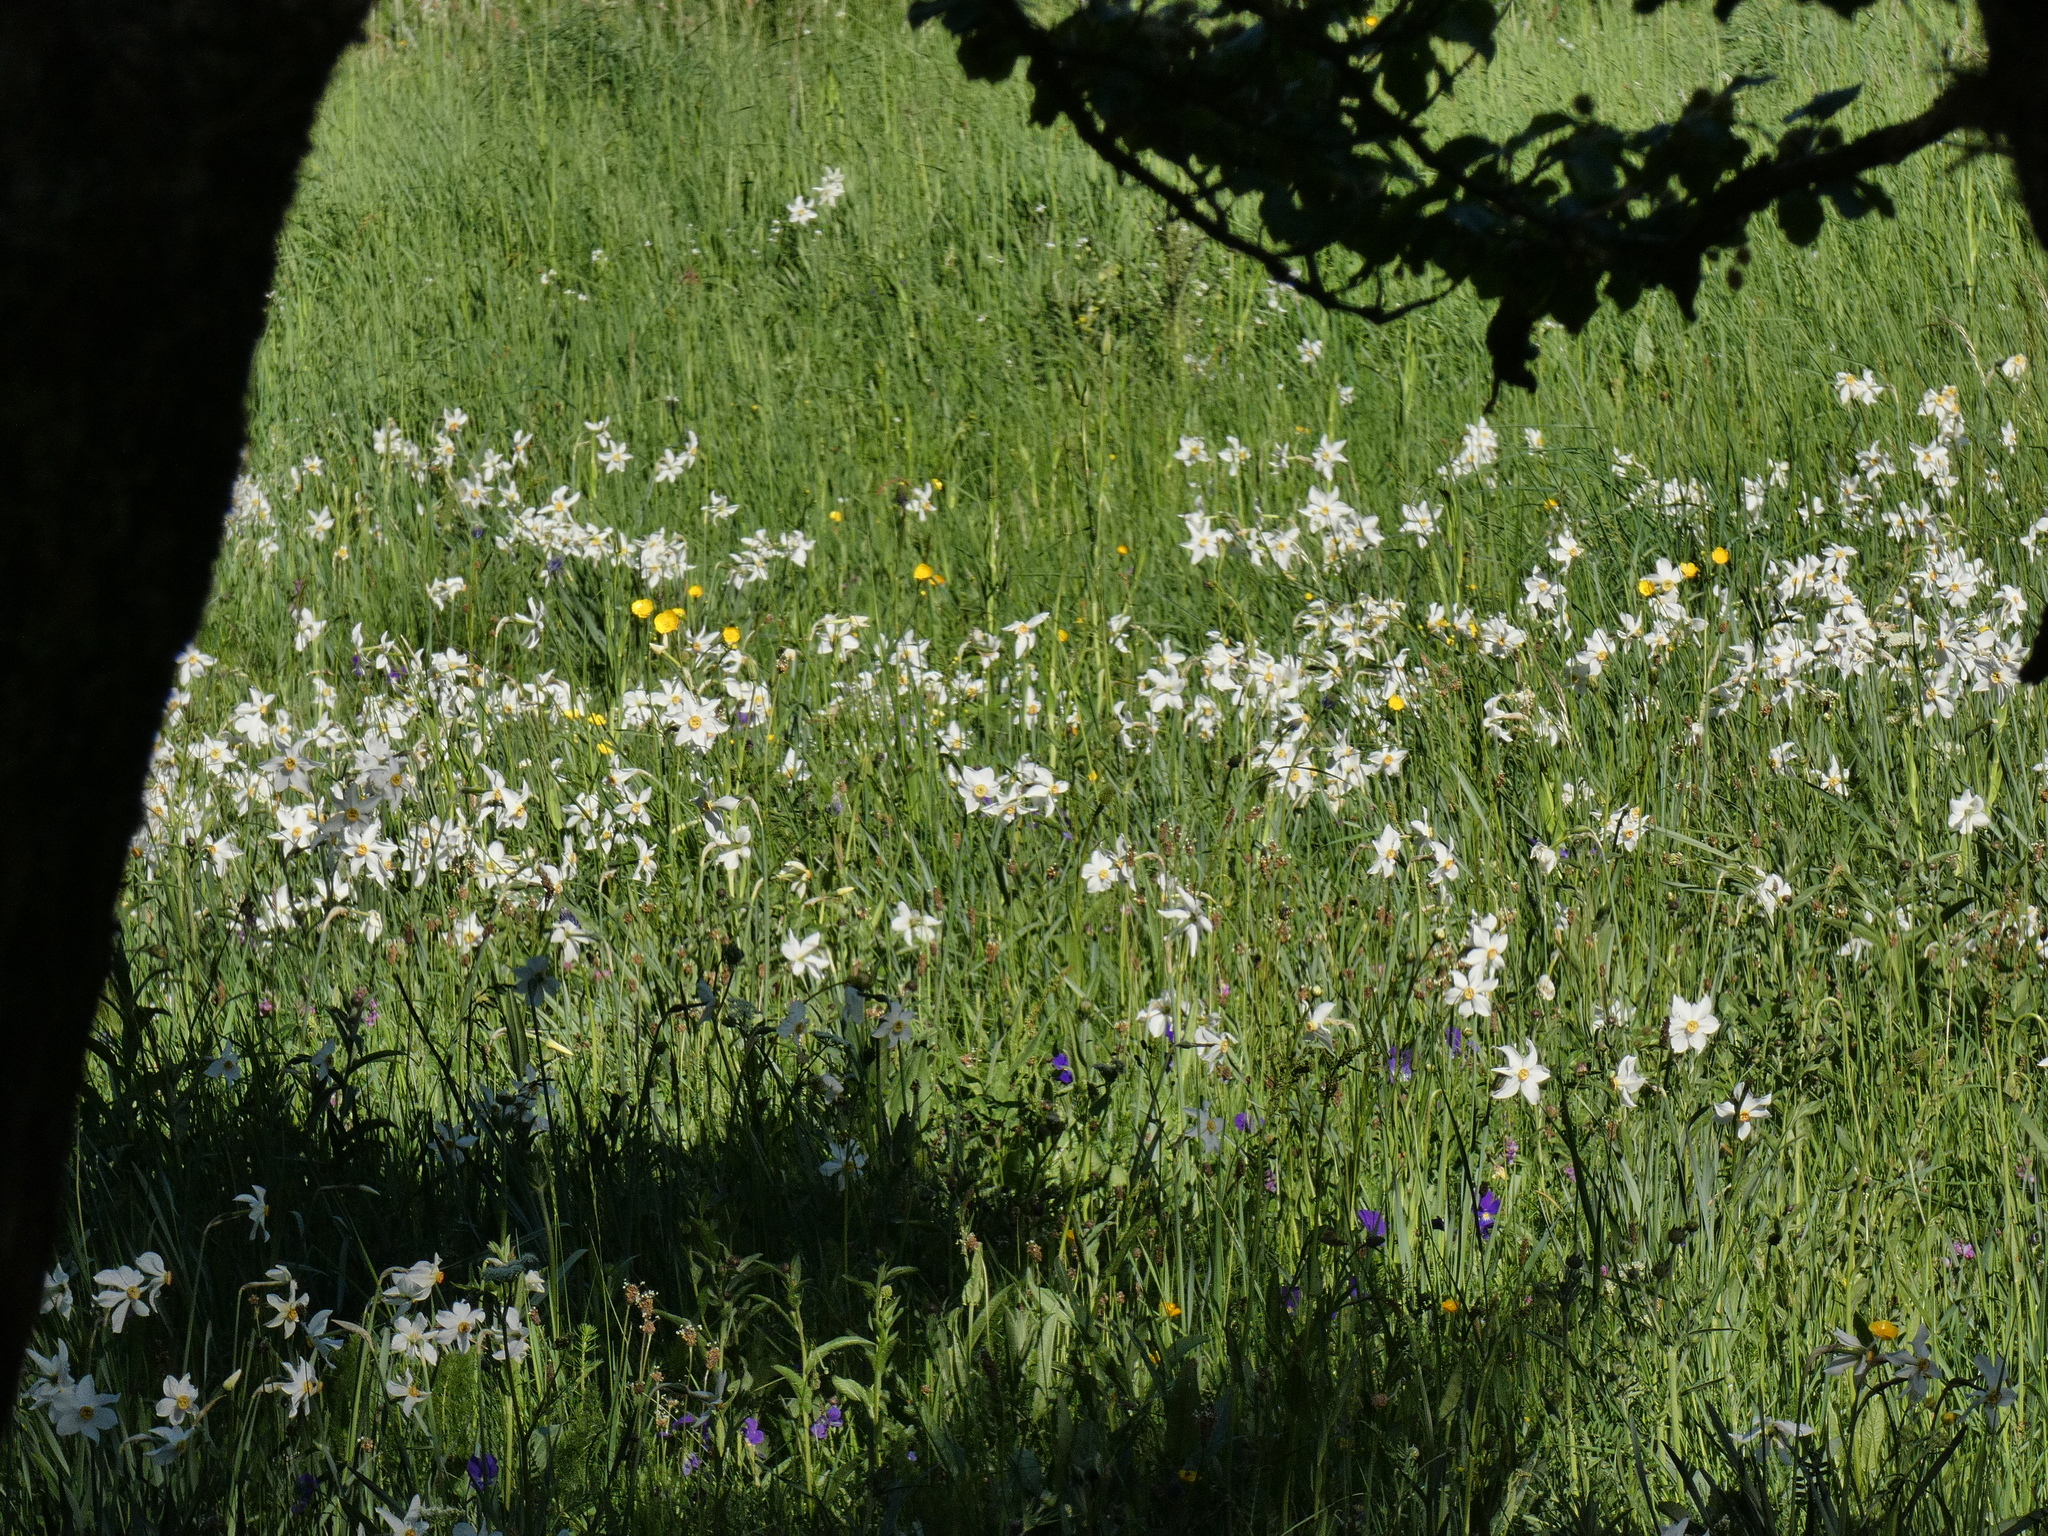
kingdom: Plantae
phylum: Tracheophyta
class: Liliopsida
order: Asparagales
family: Amaryllidaceae
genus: Narcissus
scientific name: Narcissus poeticus
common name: Pheasant's-eye daffodil
